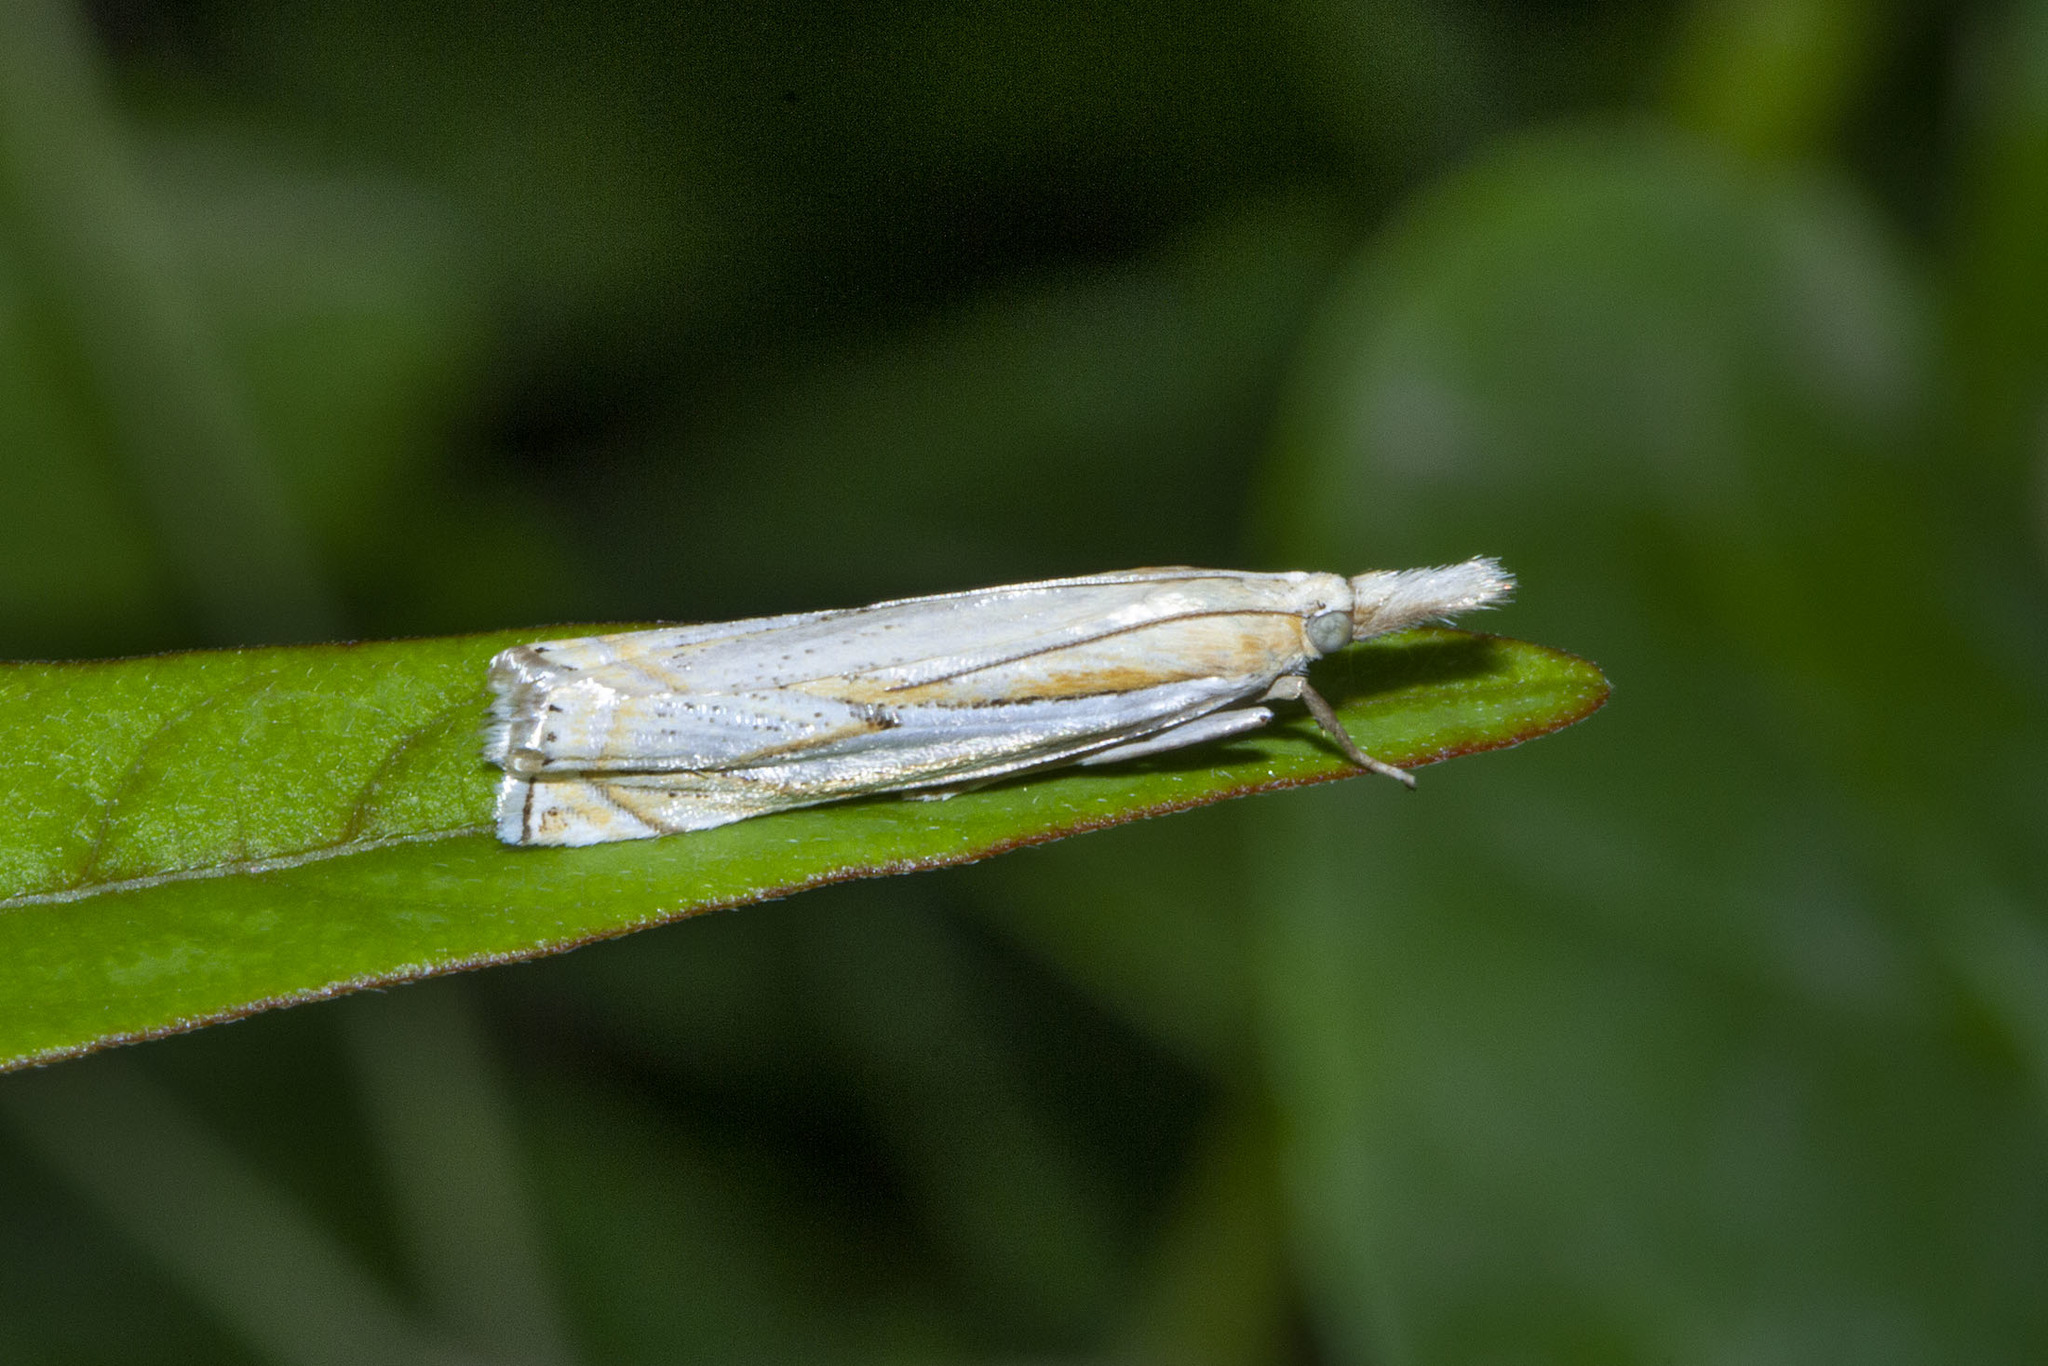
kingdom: Animalia
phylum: Arthropoda
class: Insecta
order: Lepidoptera
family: Crambidae
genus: Crambus
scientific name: Crambus youngellus
